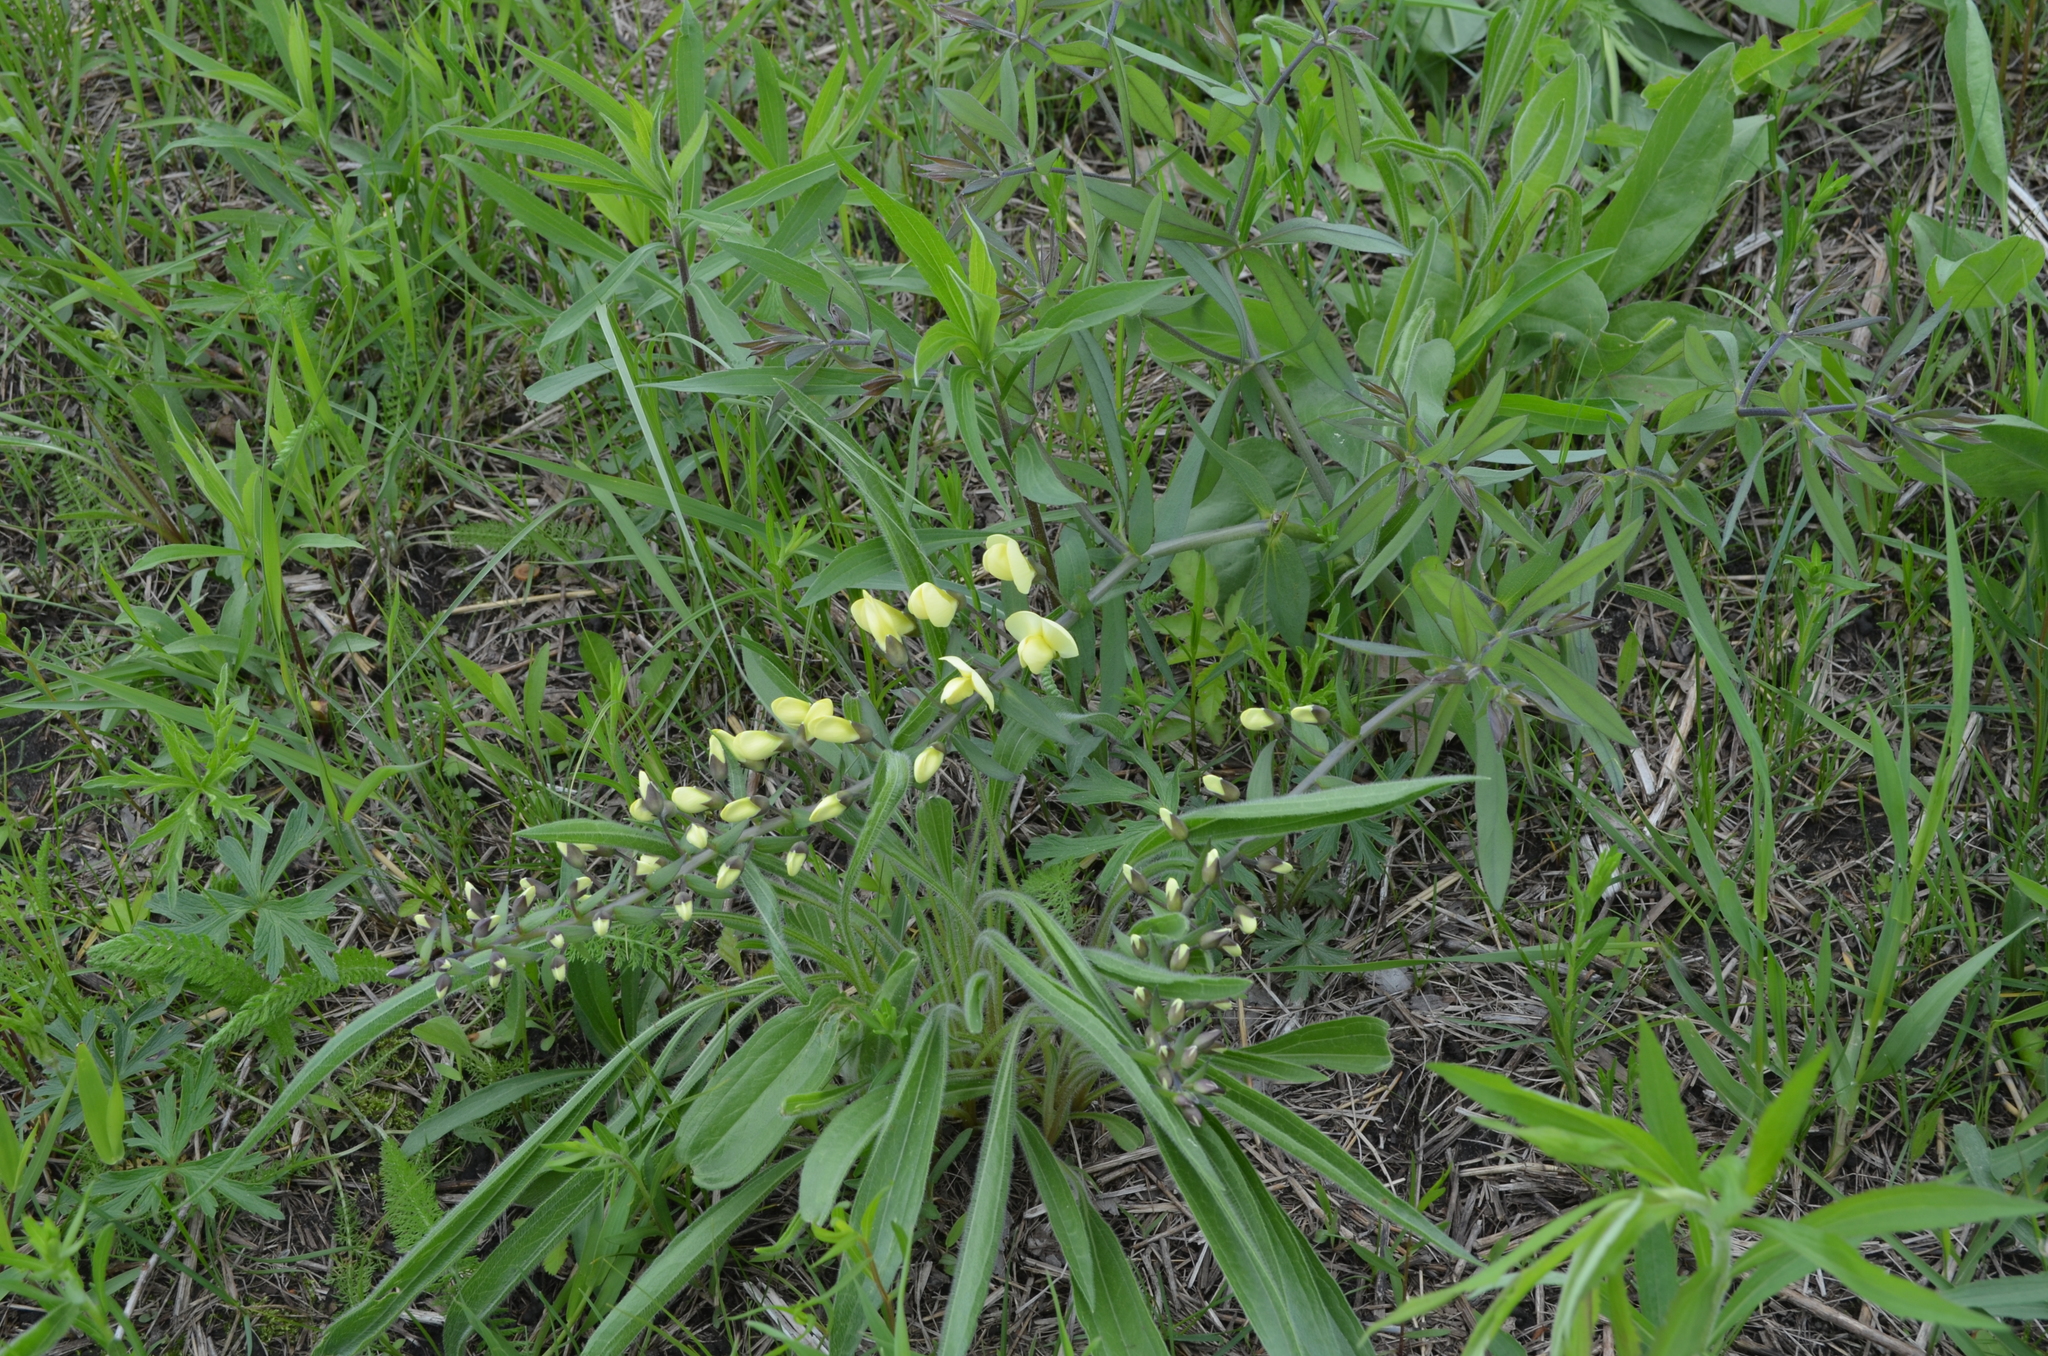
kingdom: Plantae
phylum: Tracheophyta
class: Magnoliopsida
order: Fabales
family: Fabaceae
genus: Baptisia
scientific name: Baptisia bracteata
